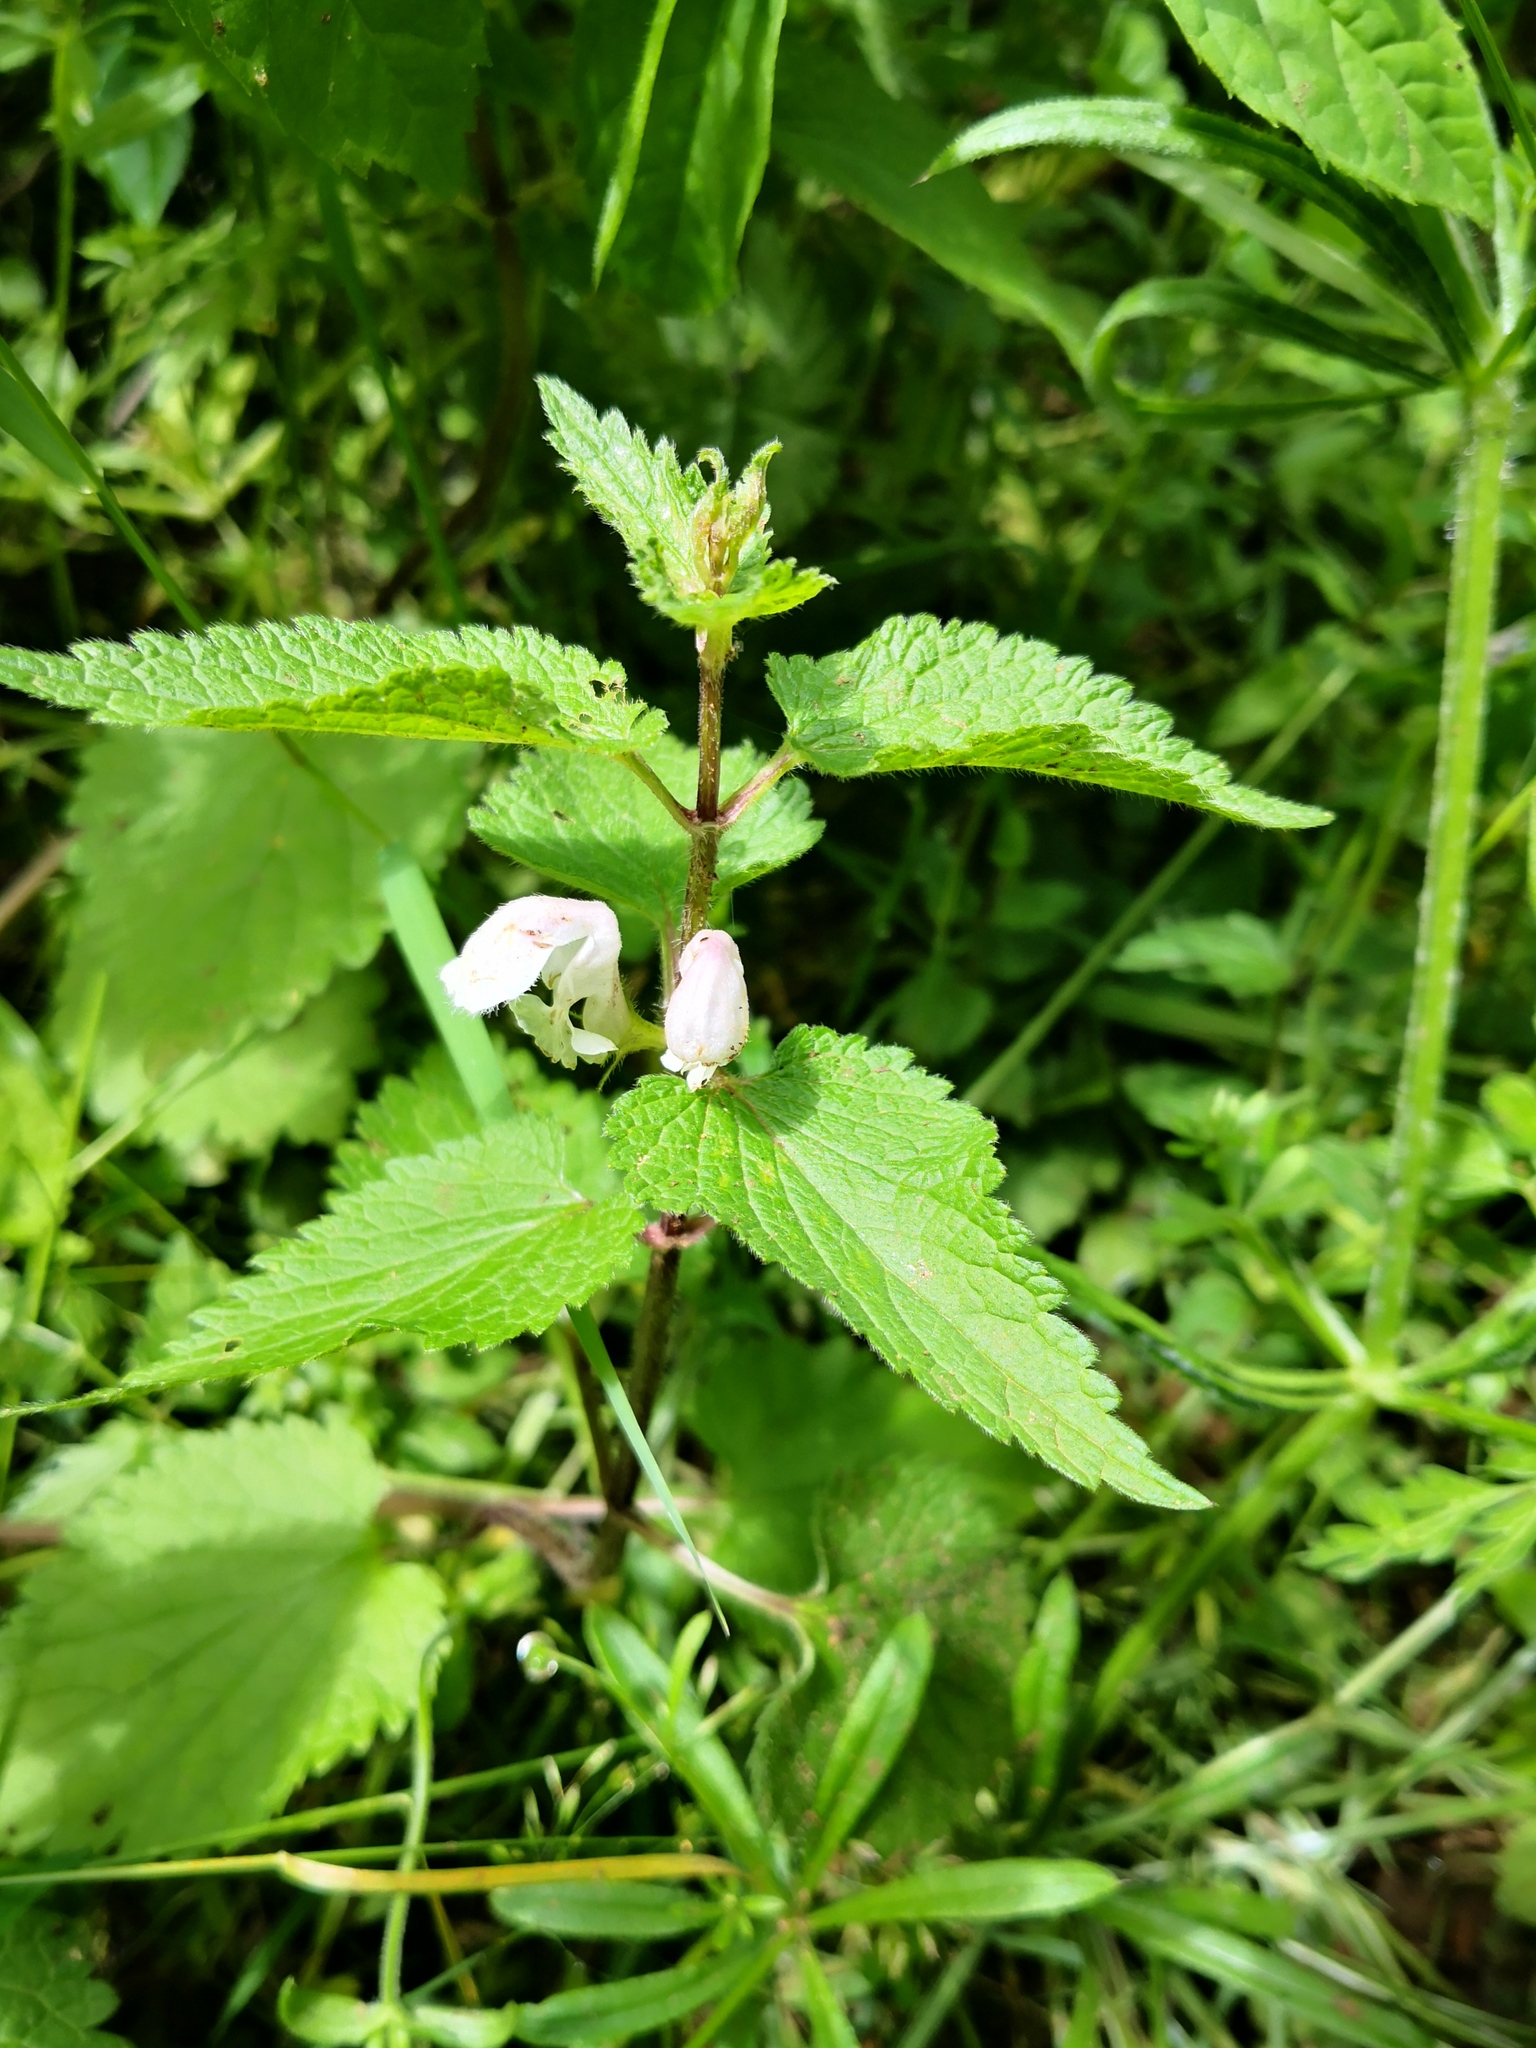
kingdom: Plantae
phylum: Tracheophyta
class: Magnoliopsida
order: Lamiales
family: Lamiaceae
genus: Lamium
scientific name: Lamium album
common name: White dead-nettle
